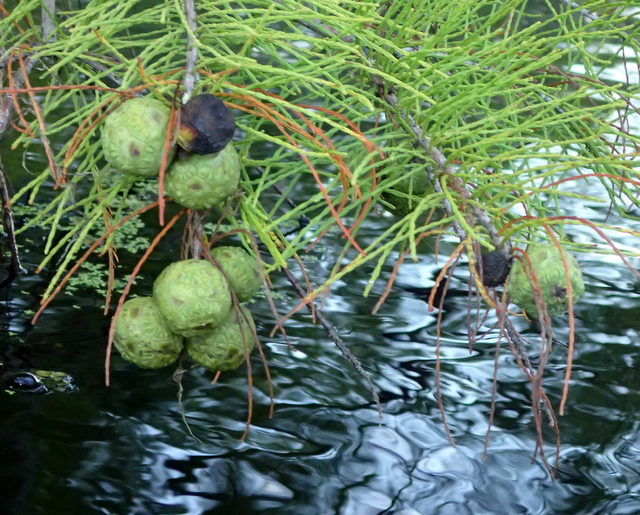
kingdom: Plantae
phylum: Tracheophyta
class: Pinopsida
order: Pinales
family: Cupressaceae
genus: Taxodium
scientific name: Taxodium distichum
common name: Bald cypress
